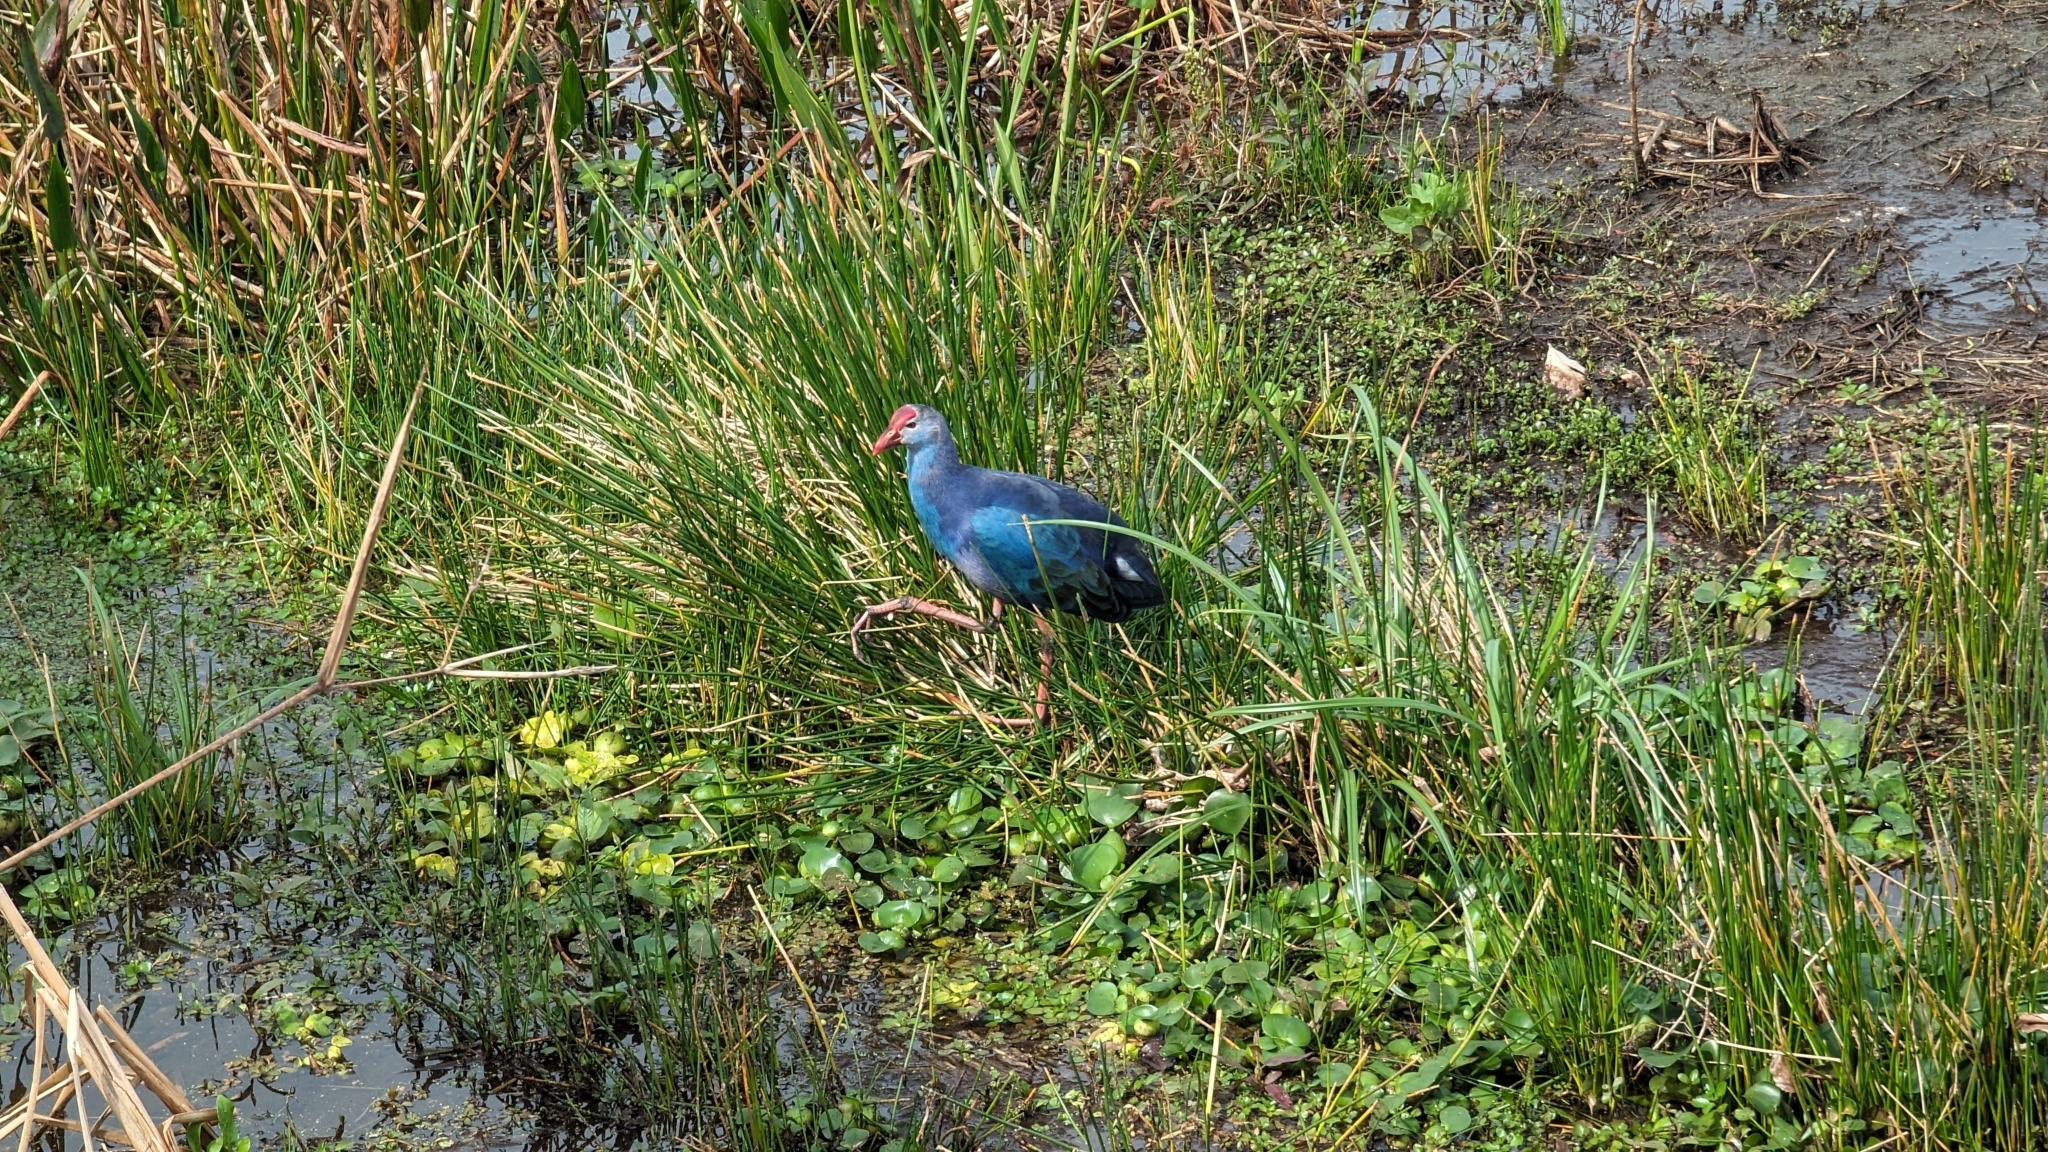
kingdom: Animalia
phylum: Chordata
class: Aves
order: Gruiformes
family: Rallidae
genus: Porphyrio
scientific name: Porphyrio porphyrio
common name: Purple swamphen
